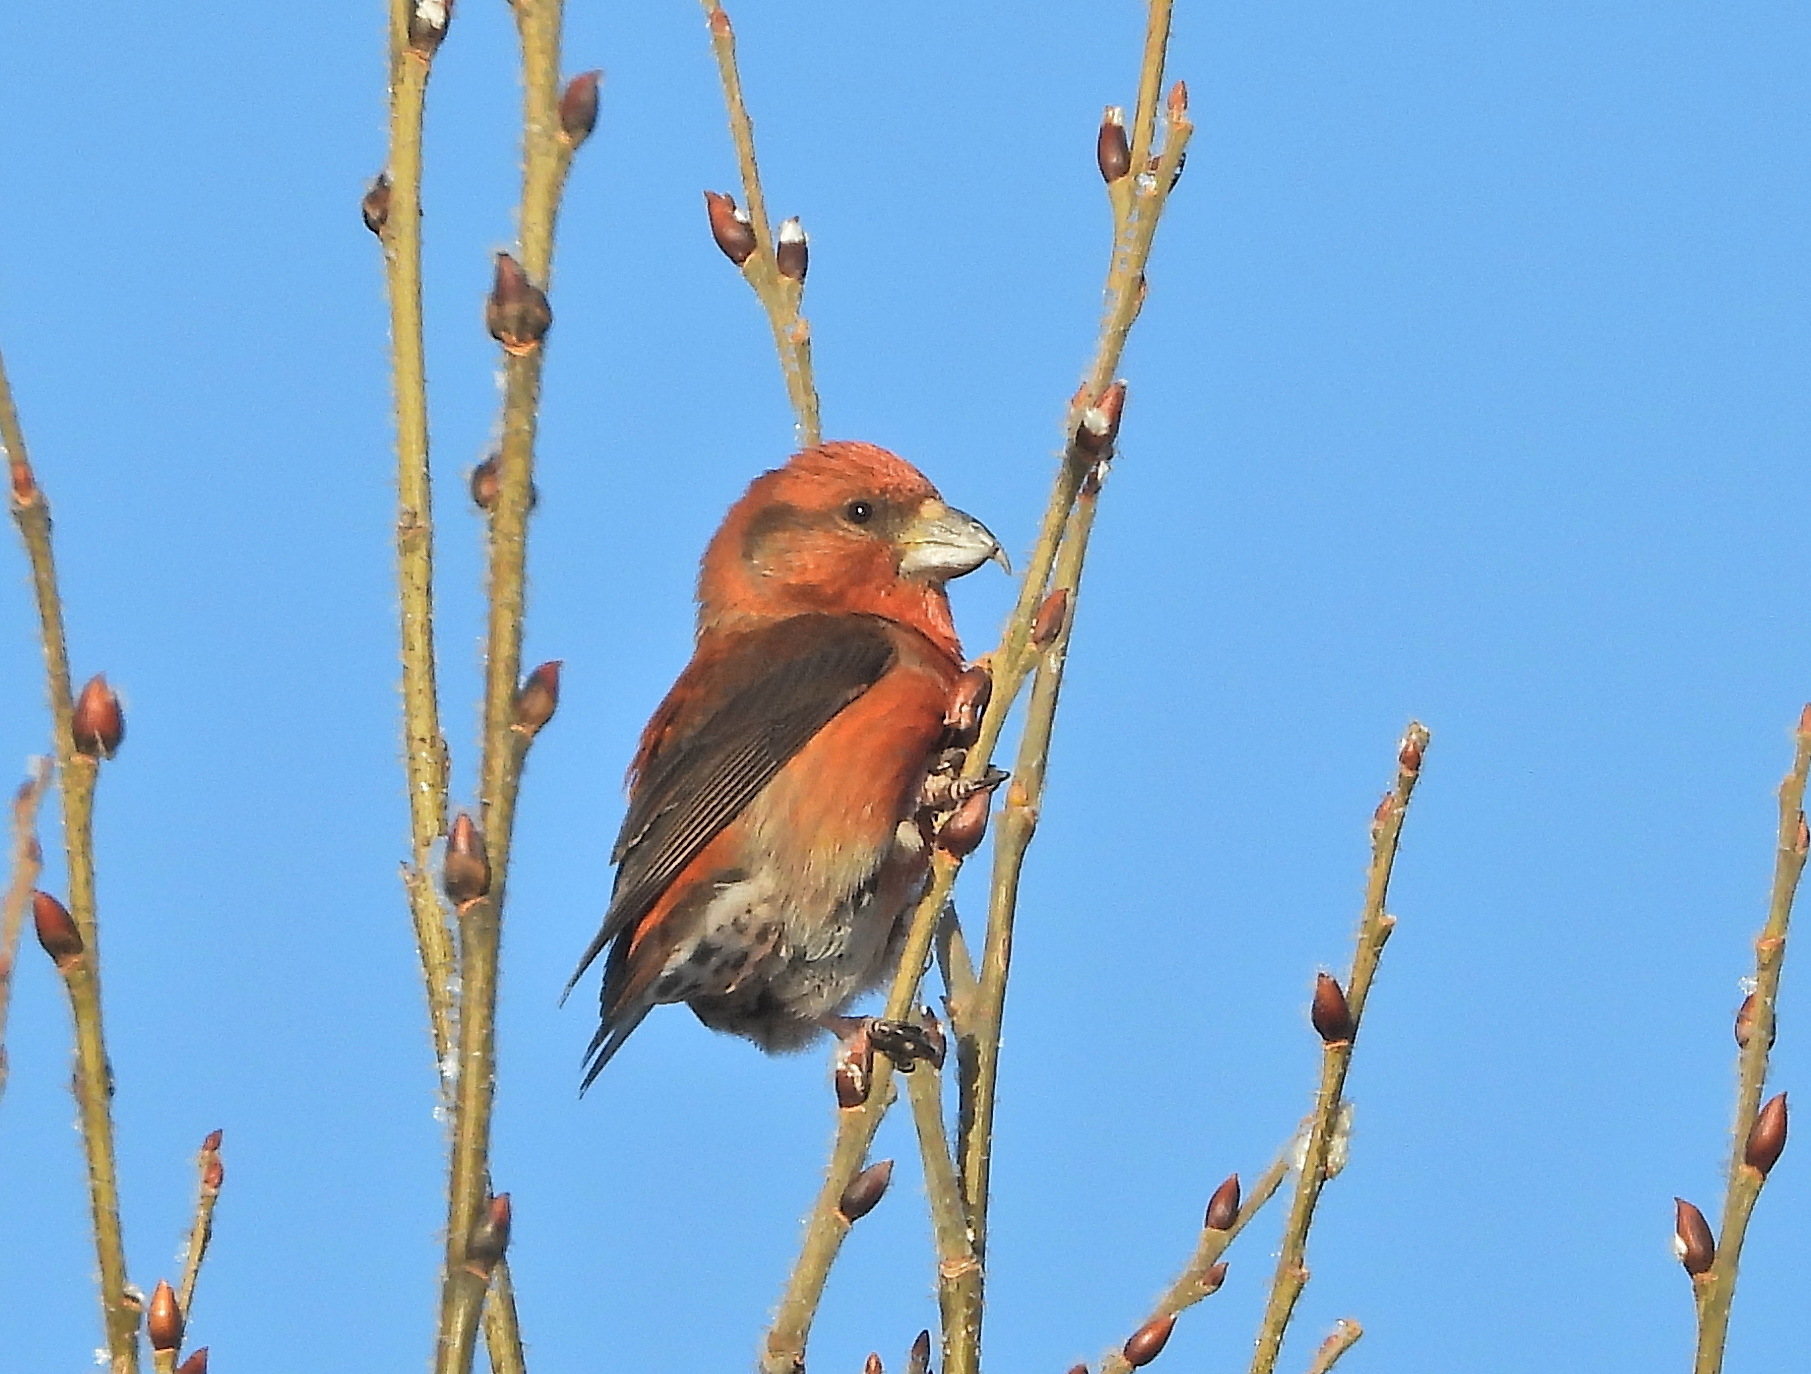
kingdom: Animalia
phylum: Chordata
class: Aves
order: Passeriformes
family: Fringillidae
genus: Loxia
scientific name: Loxia curvirostra
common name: Red crossbill
